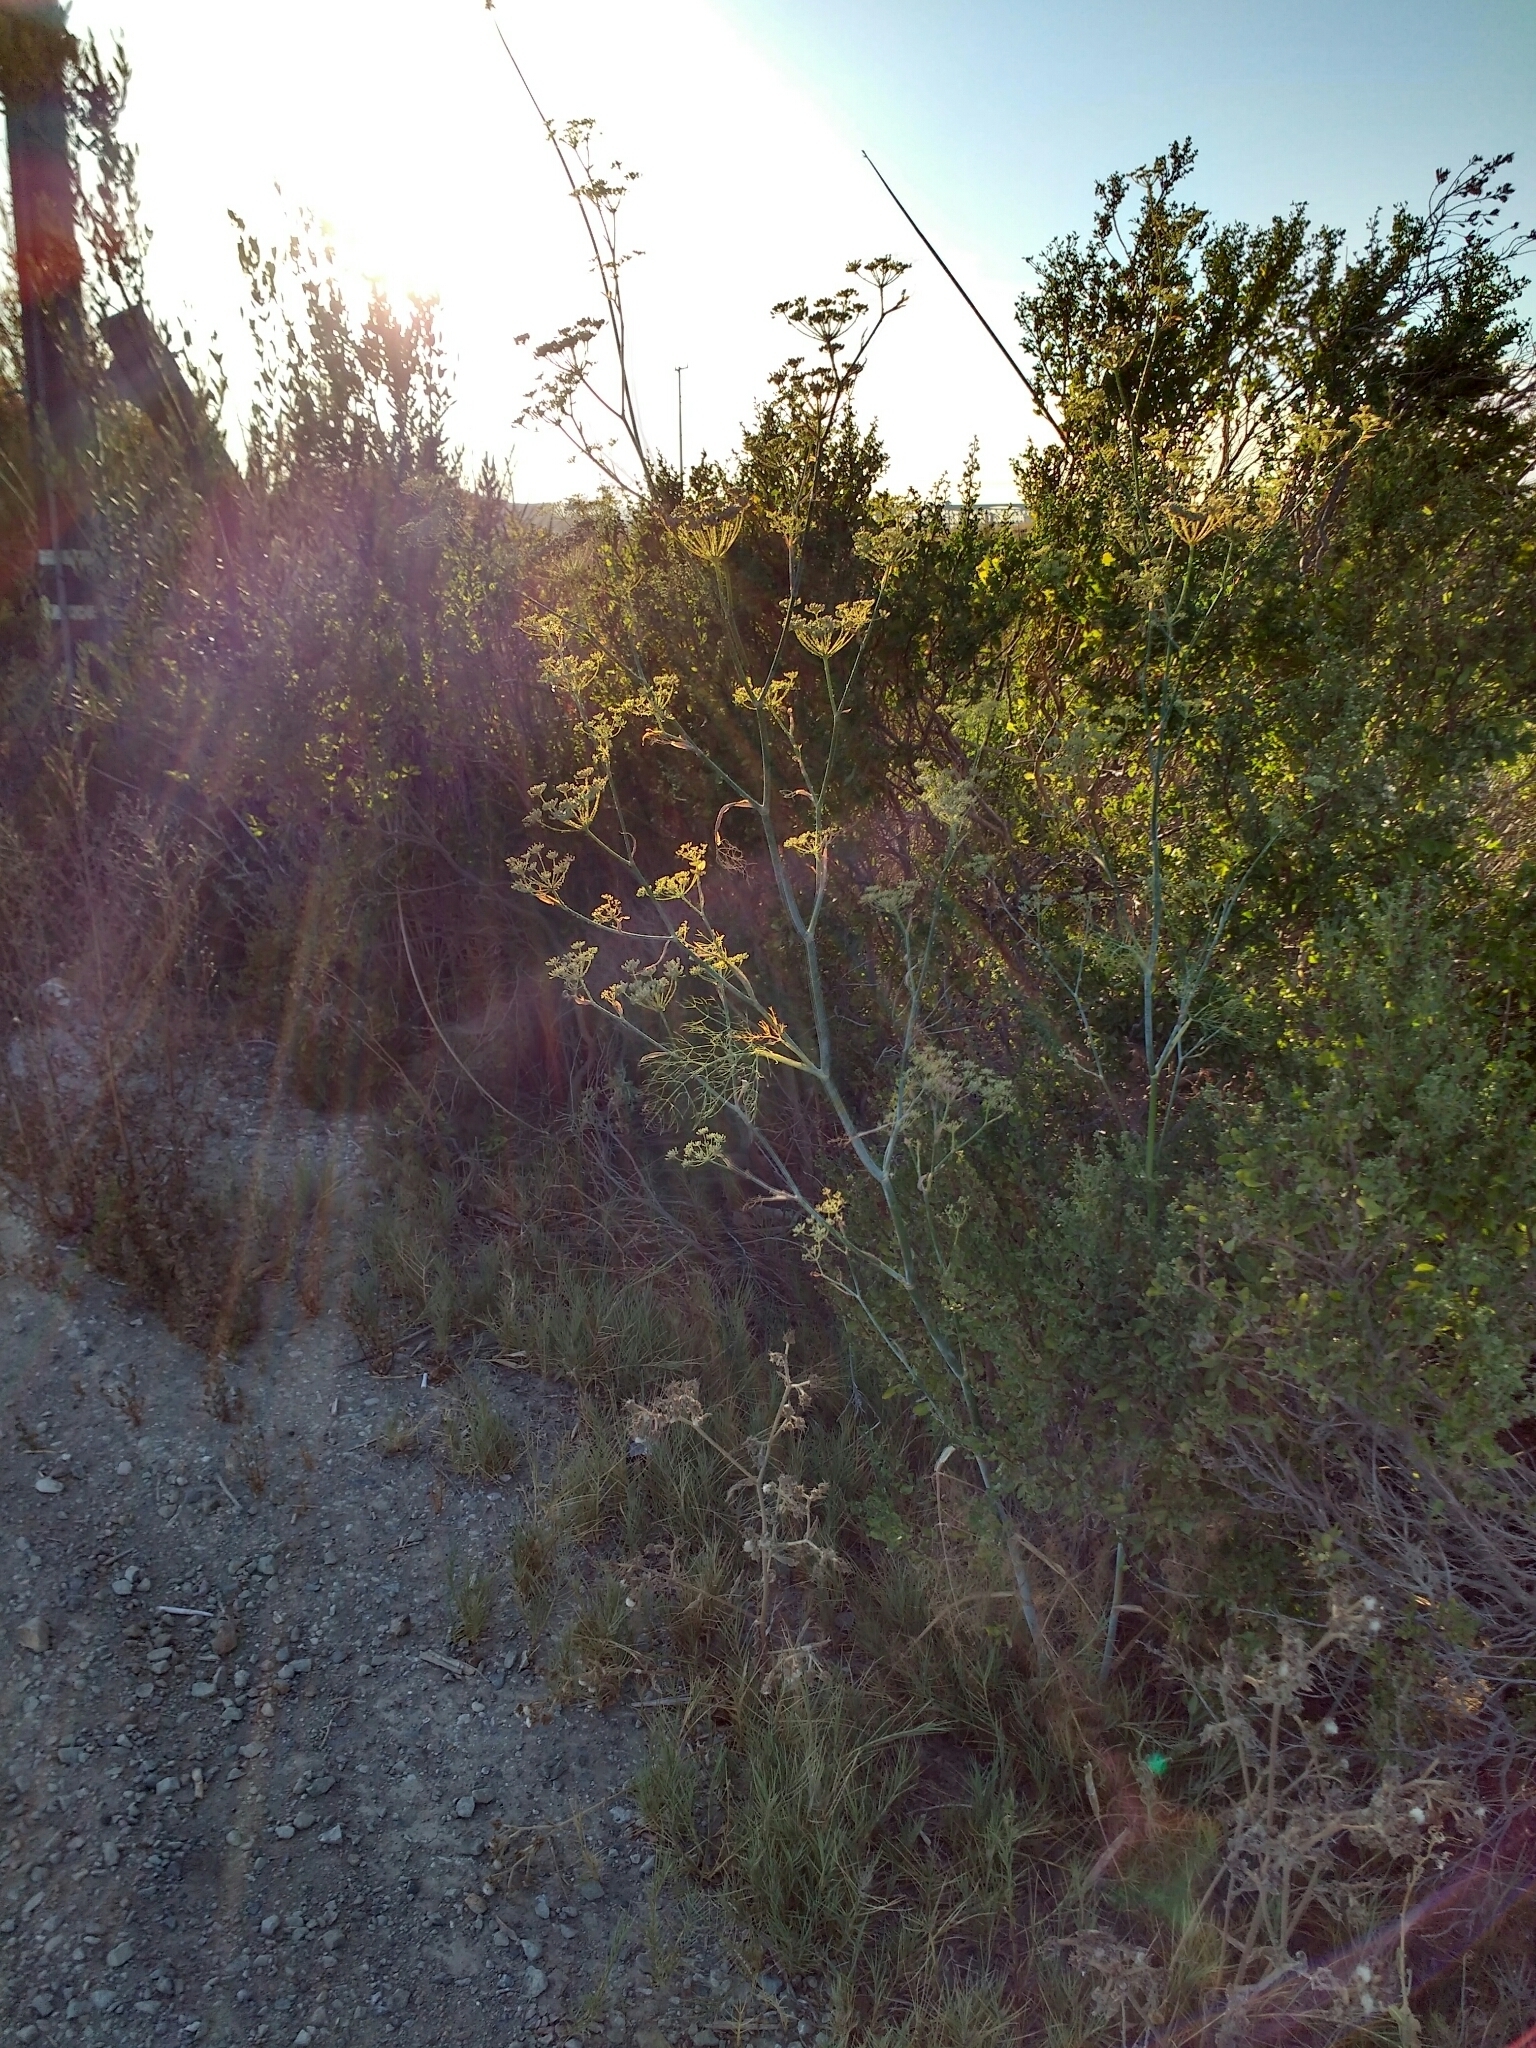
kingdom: Plantae
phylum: Tracheophyta
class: Magnoliopsida
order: Apiales
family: Apiaceae
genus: Foeniculum
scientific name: Foeniculum vulgare
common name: Fennel
